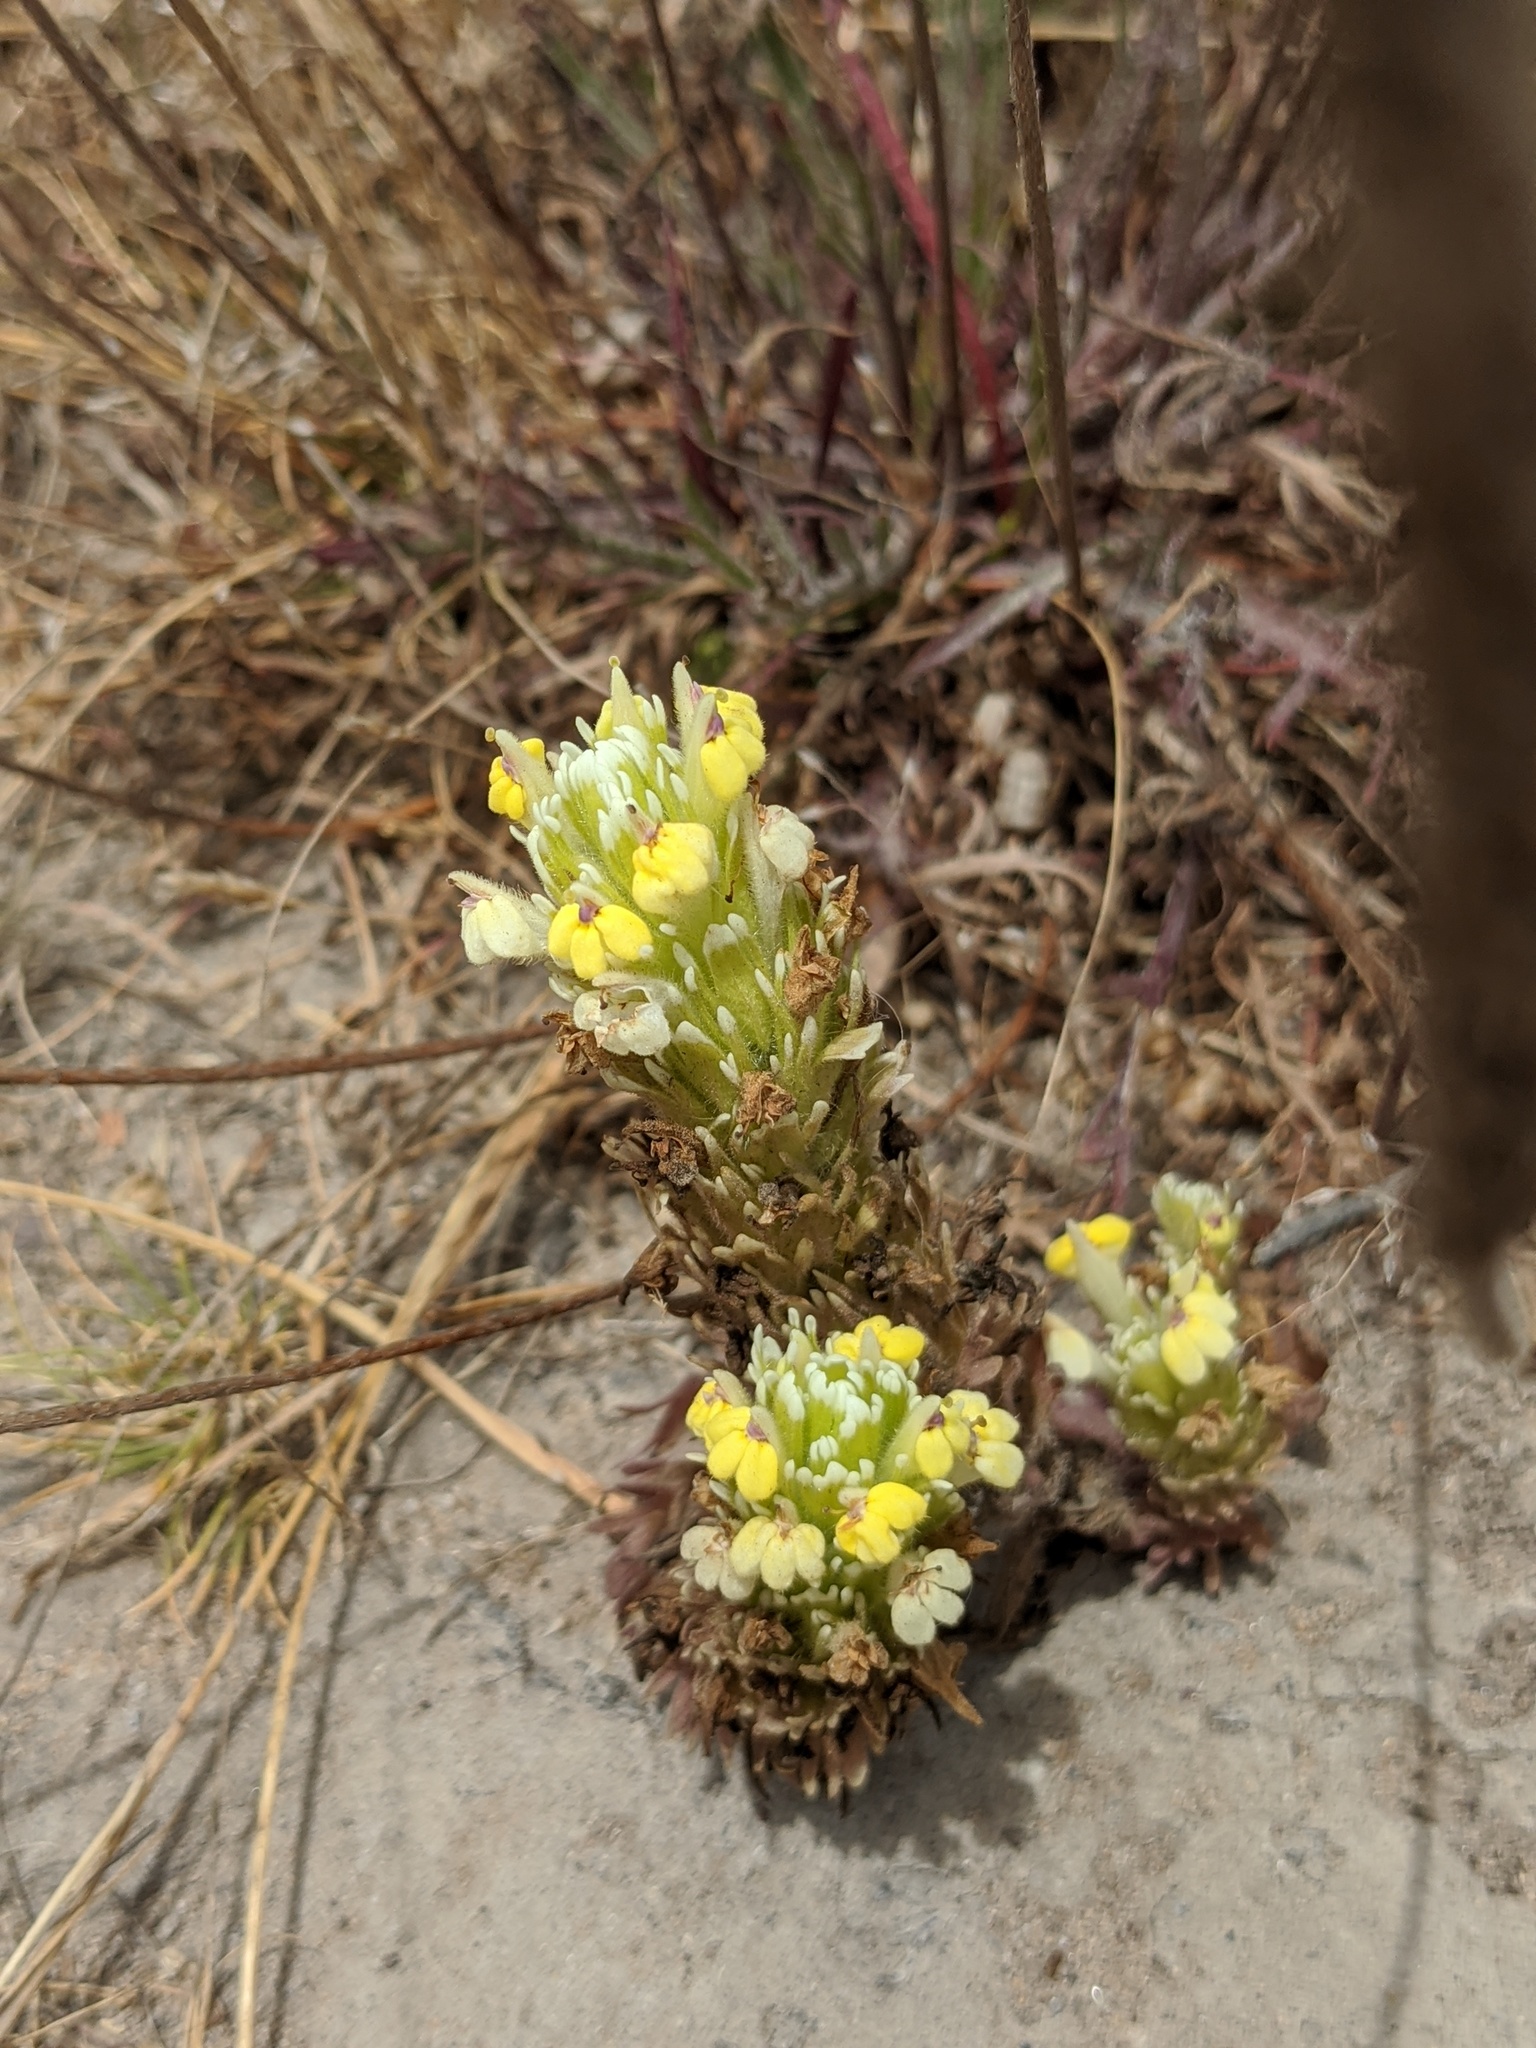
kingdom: Plantae
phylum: Tracheophyta
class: Magnoliopsida
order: Lamiales
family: Orobanchaceae
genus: Castilleja
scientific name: Castilleja ambigua
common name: Johnny-nip
